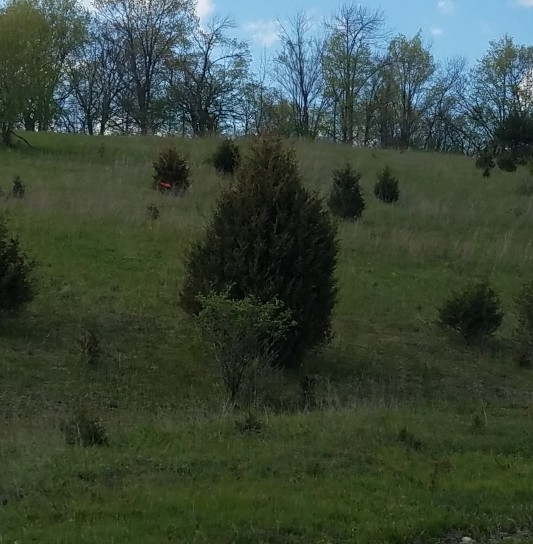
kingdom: Plantae
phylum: Tracheophyta
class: Pinopsida
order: Pinales
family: Cupressaceae
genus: Juniperus
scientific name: Juniperus virginiana
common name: Red juniper
